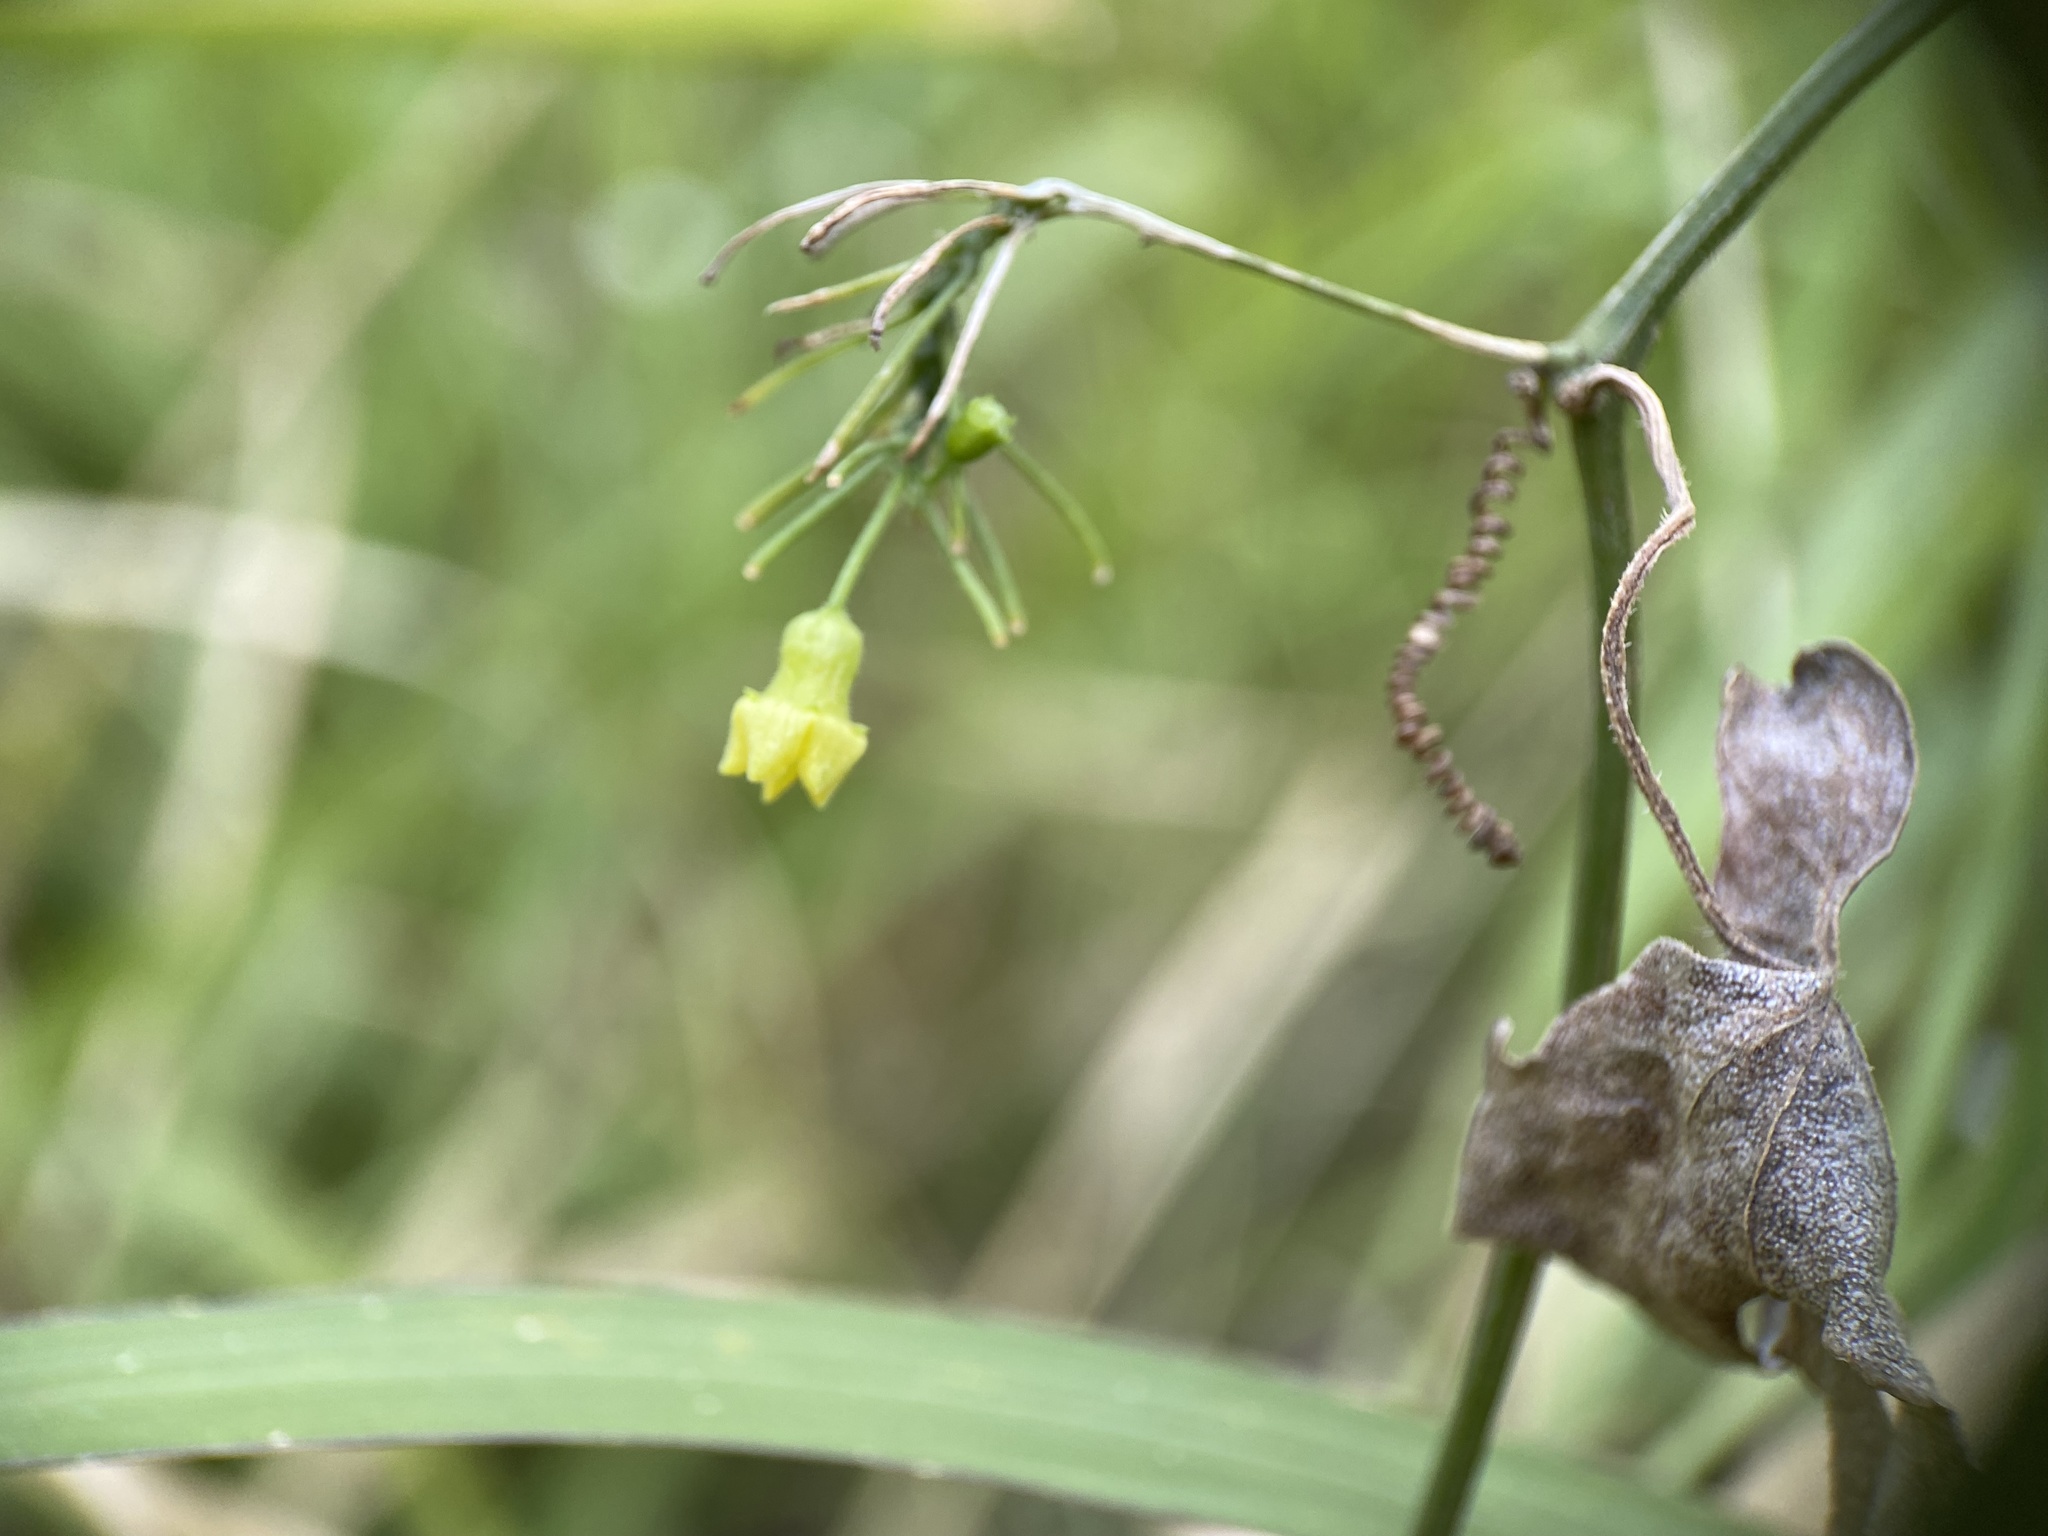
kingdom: Plantae
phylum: Tracheophyta
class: Magnoliopsida
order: Cucurbitales
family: Cucurbitaceae
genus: Melothria
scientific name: Melothria pendula
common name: Creeping-cucumber
